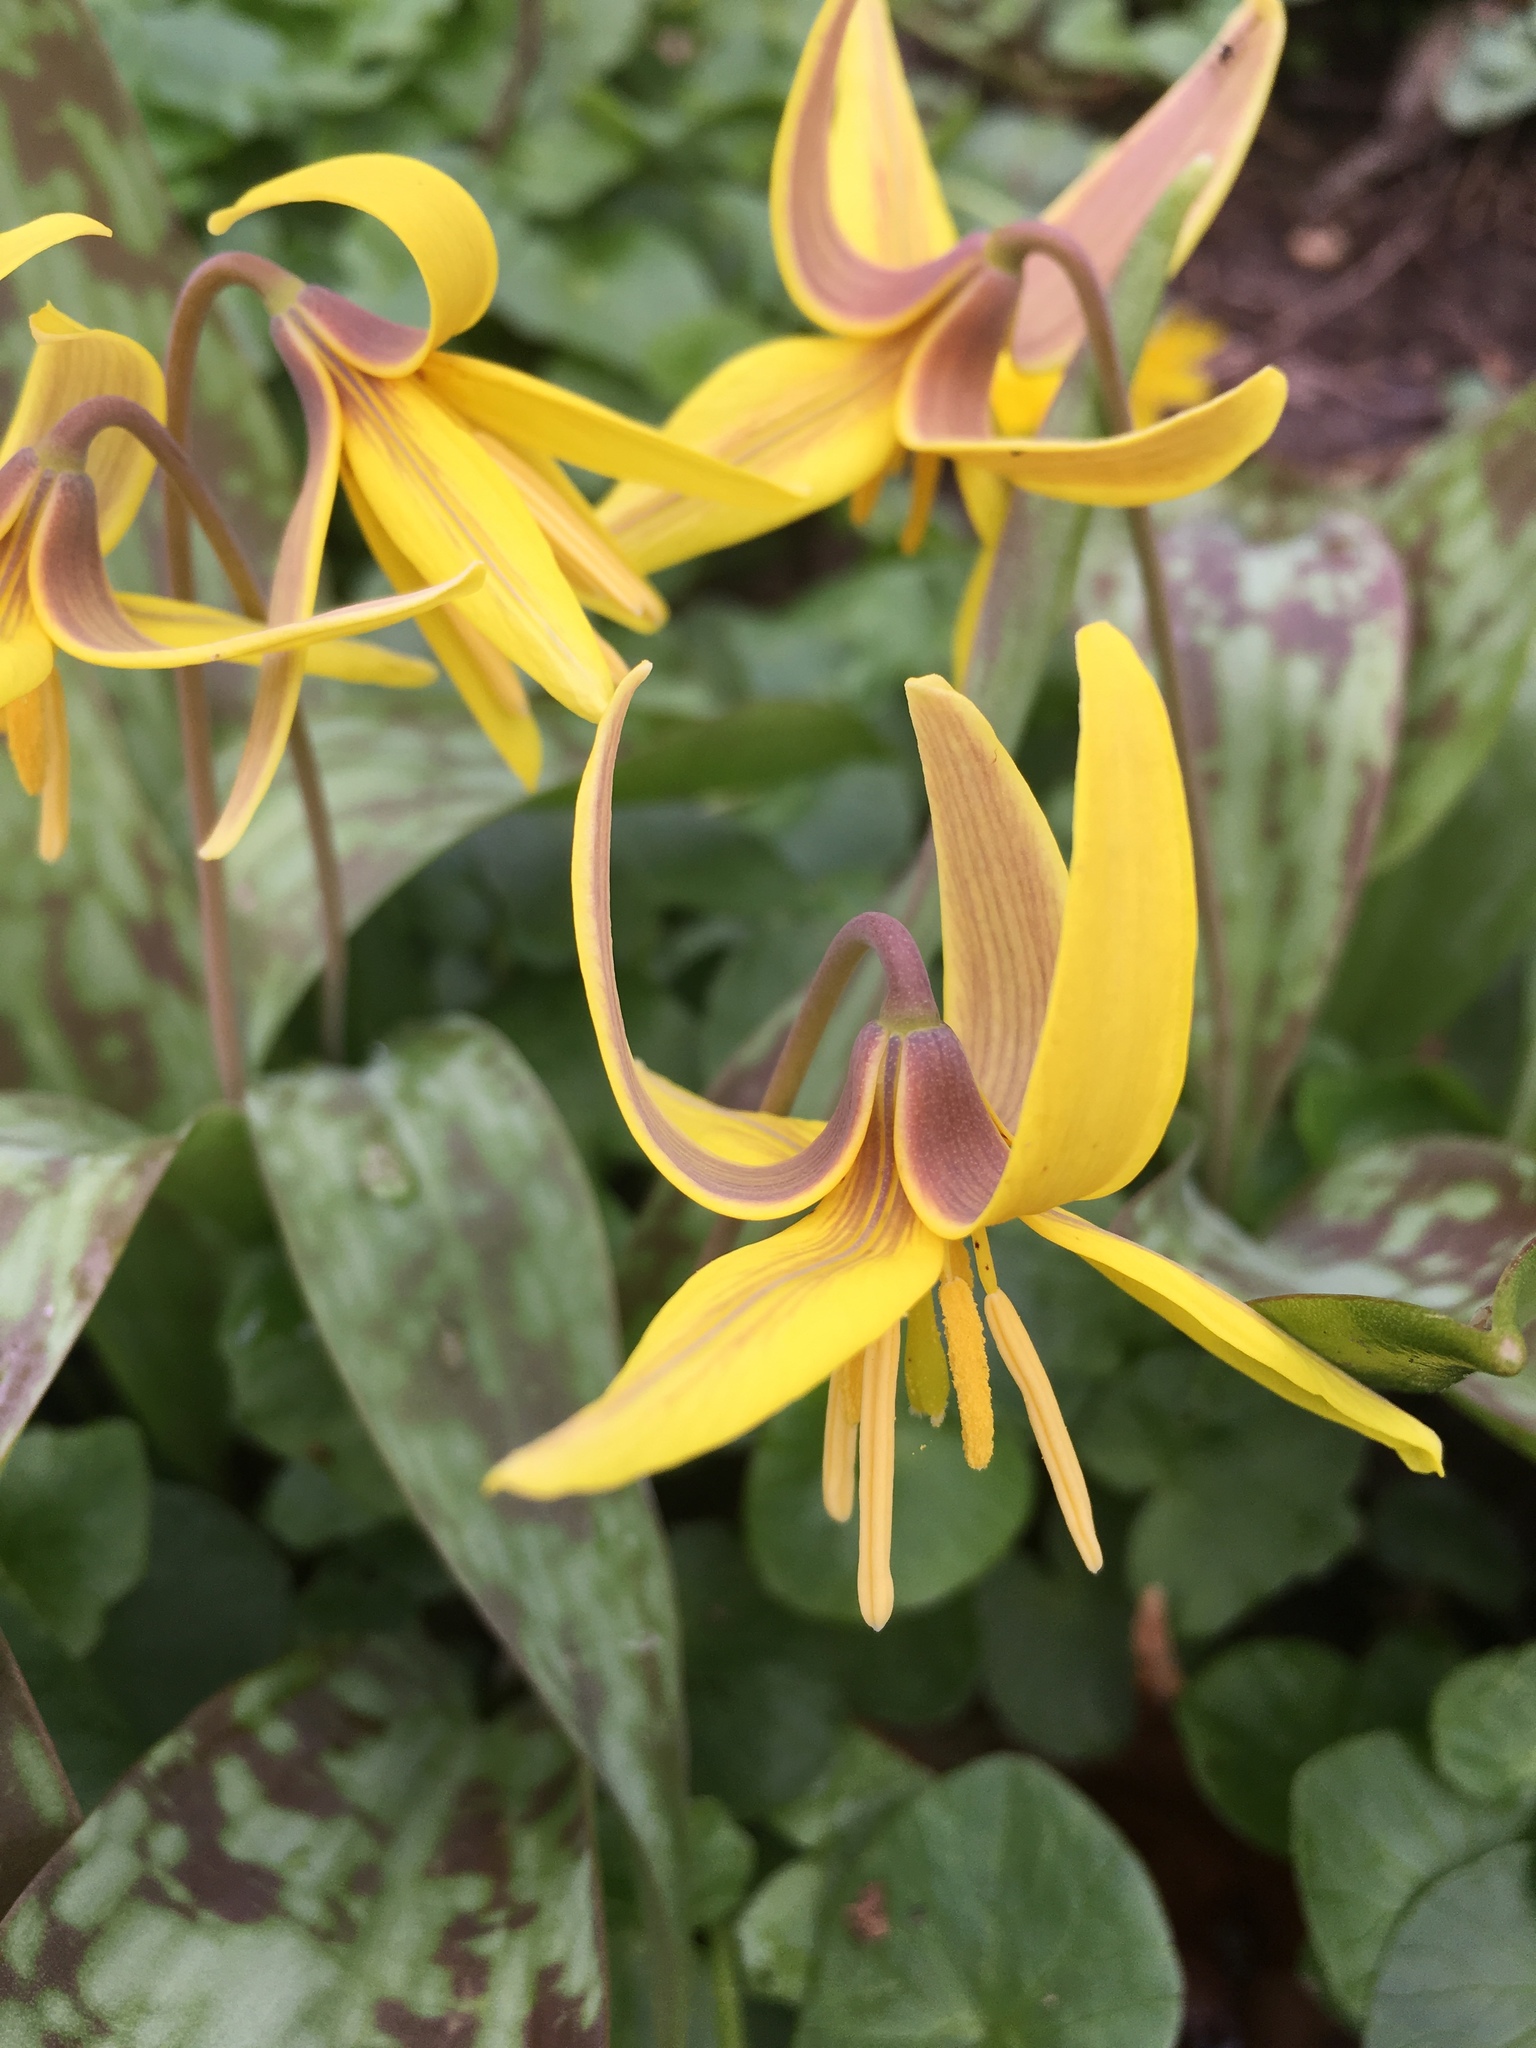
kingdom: Plantae
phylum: Tracheophyta
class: Liliopsida
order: Liliales
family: Liliaceae
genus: Erythronium
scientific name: Erythronium americanum
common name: Yellow adder's-tongue
